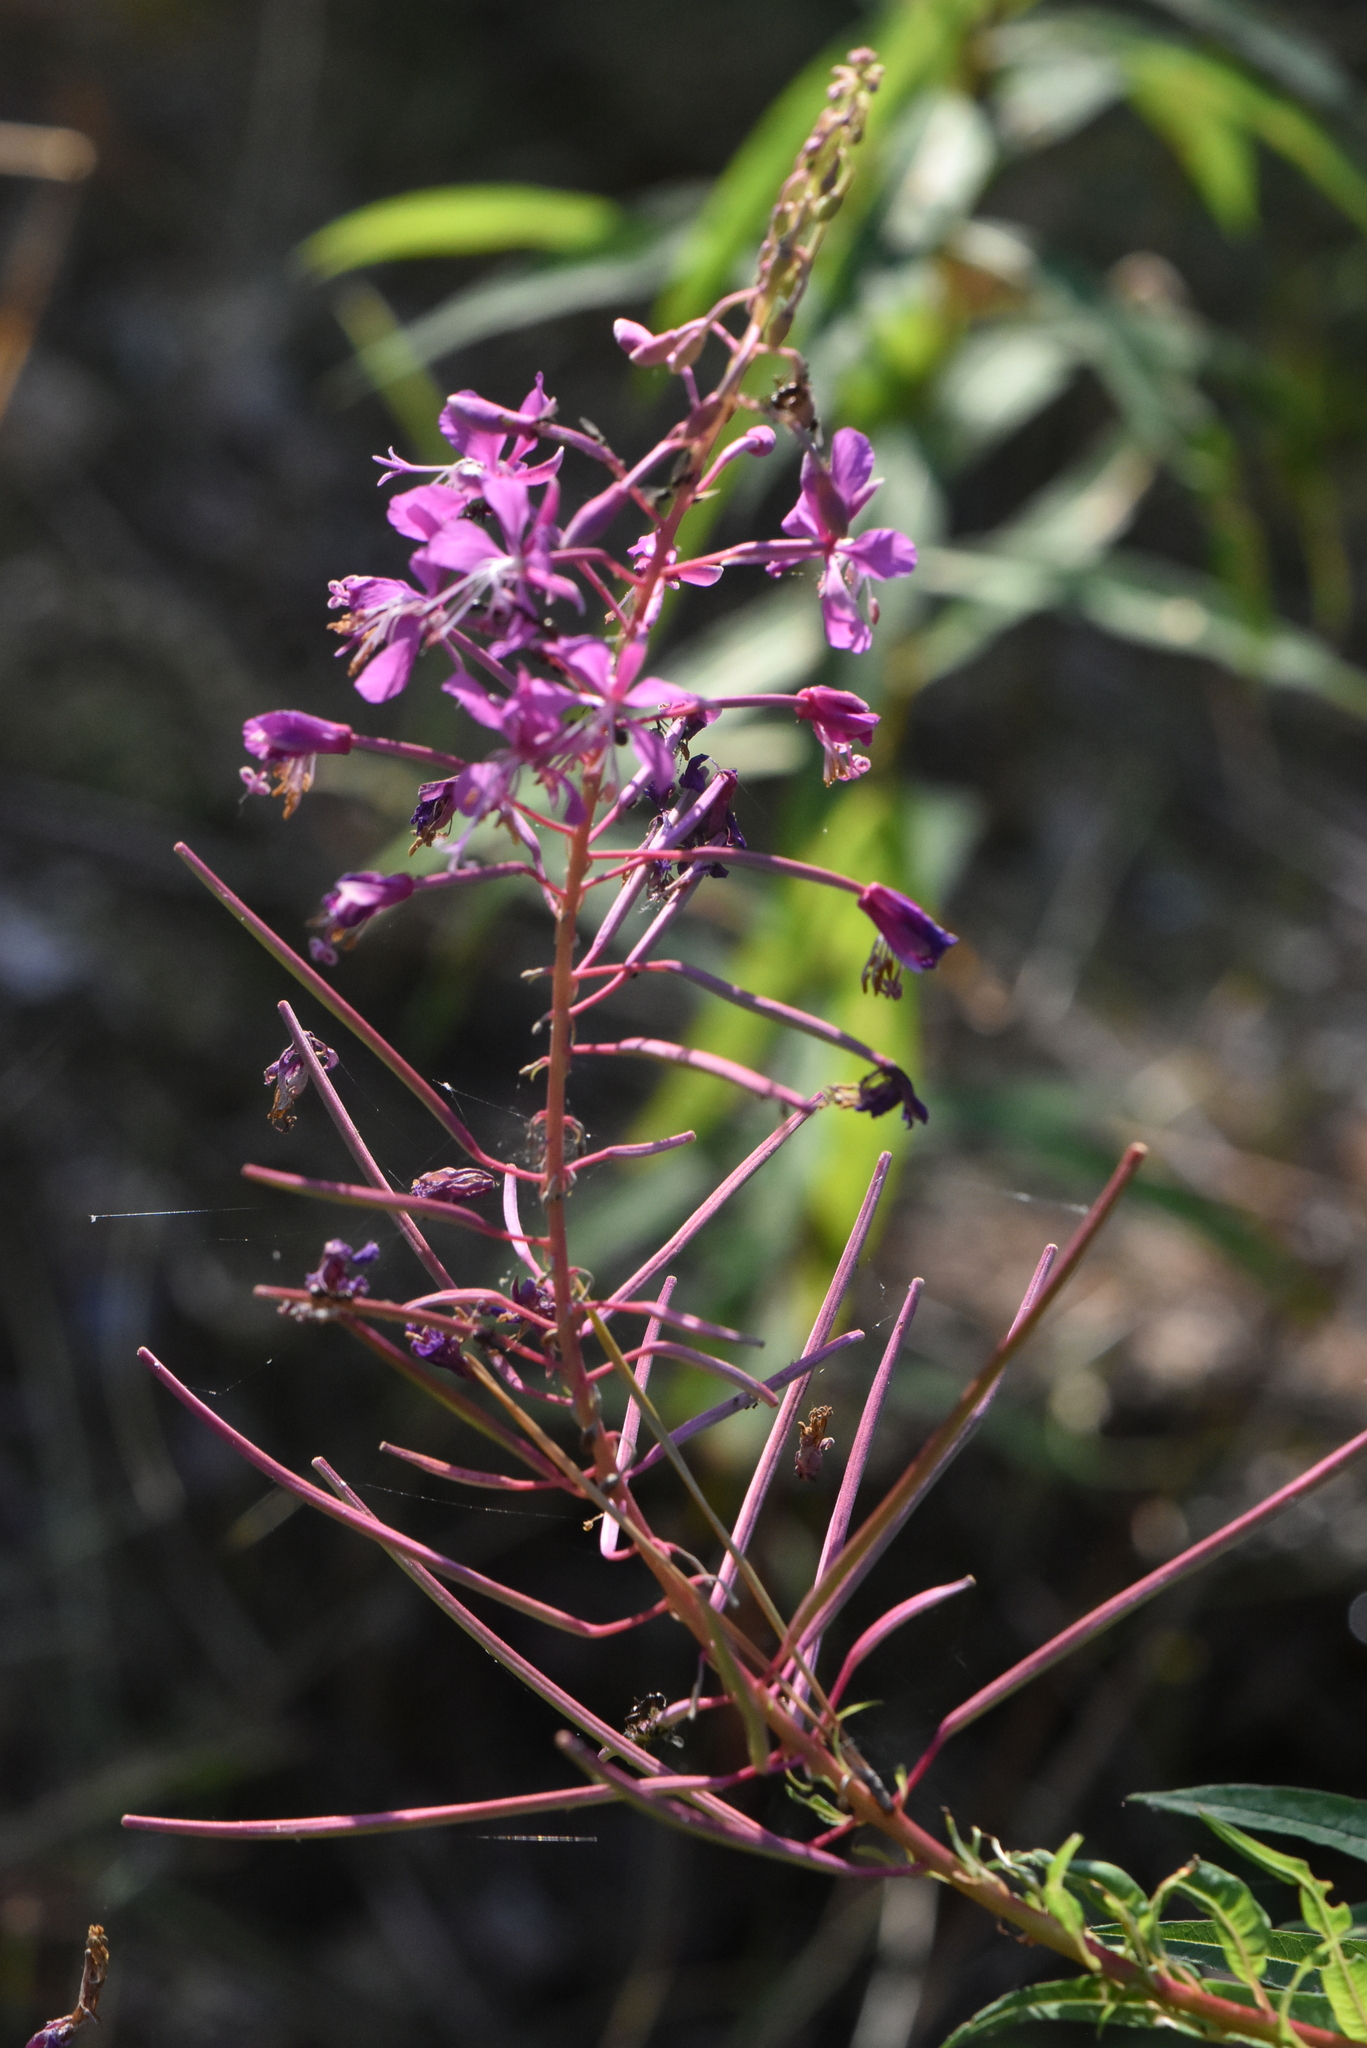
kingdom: Plantae
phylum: Tracheophyta
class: Magnoliopsida
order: Myrtales
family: Onagraceae
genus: Chamaenerion
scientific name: Chamaenerion angustifolium
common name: Fireweed
